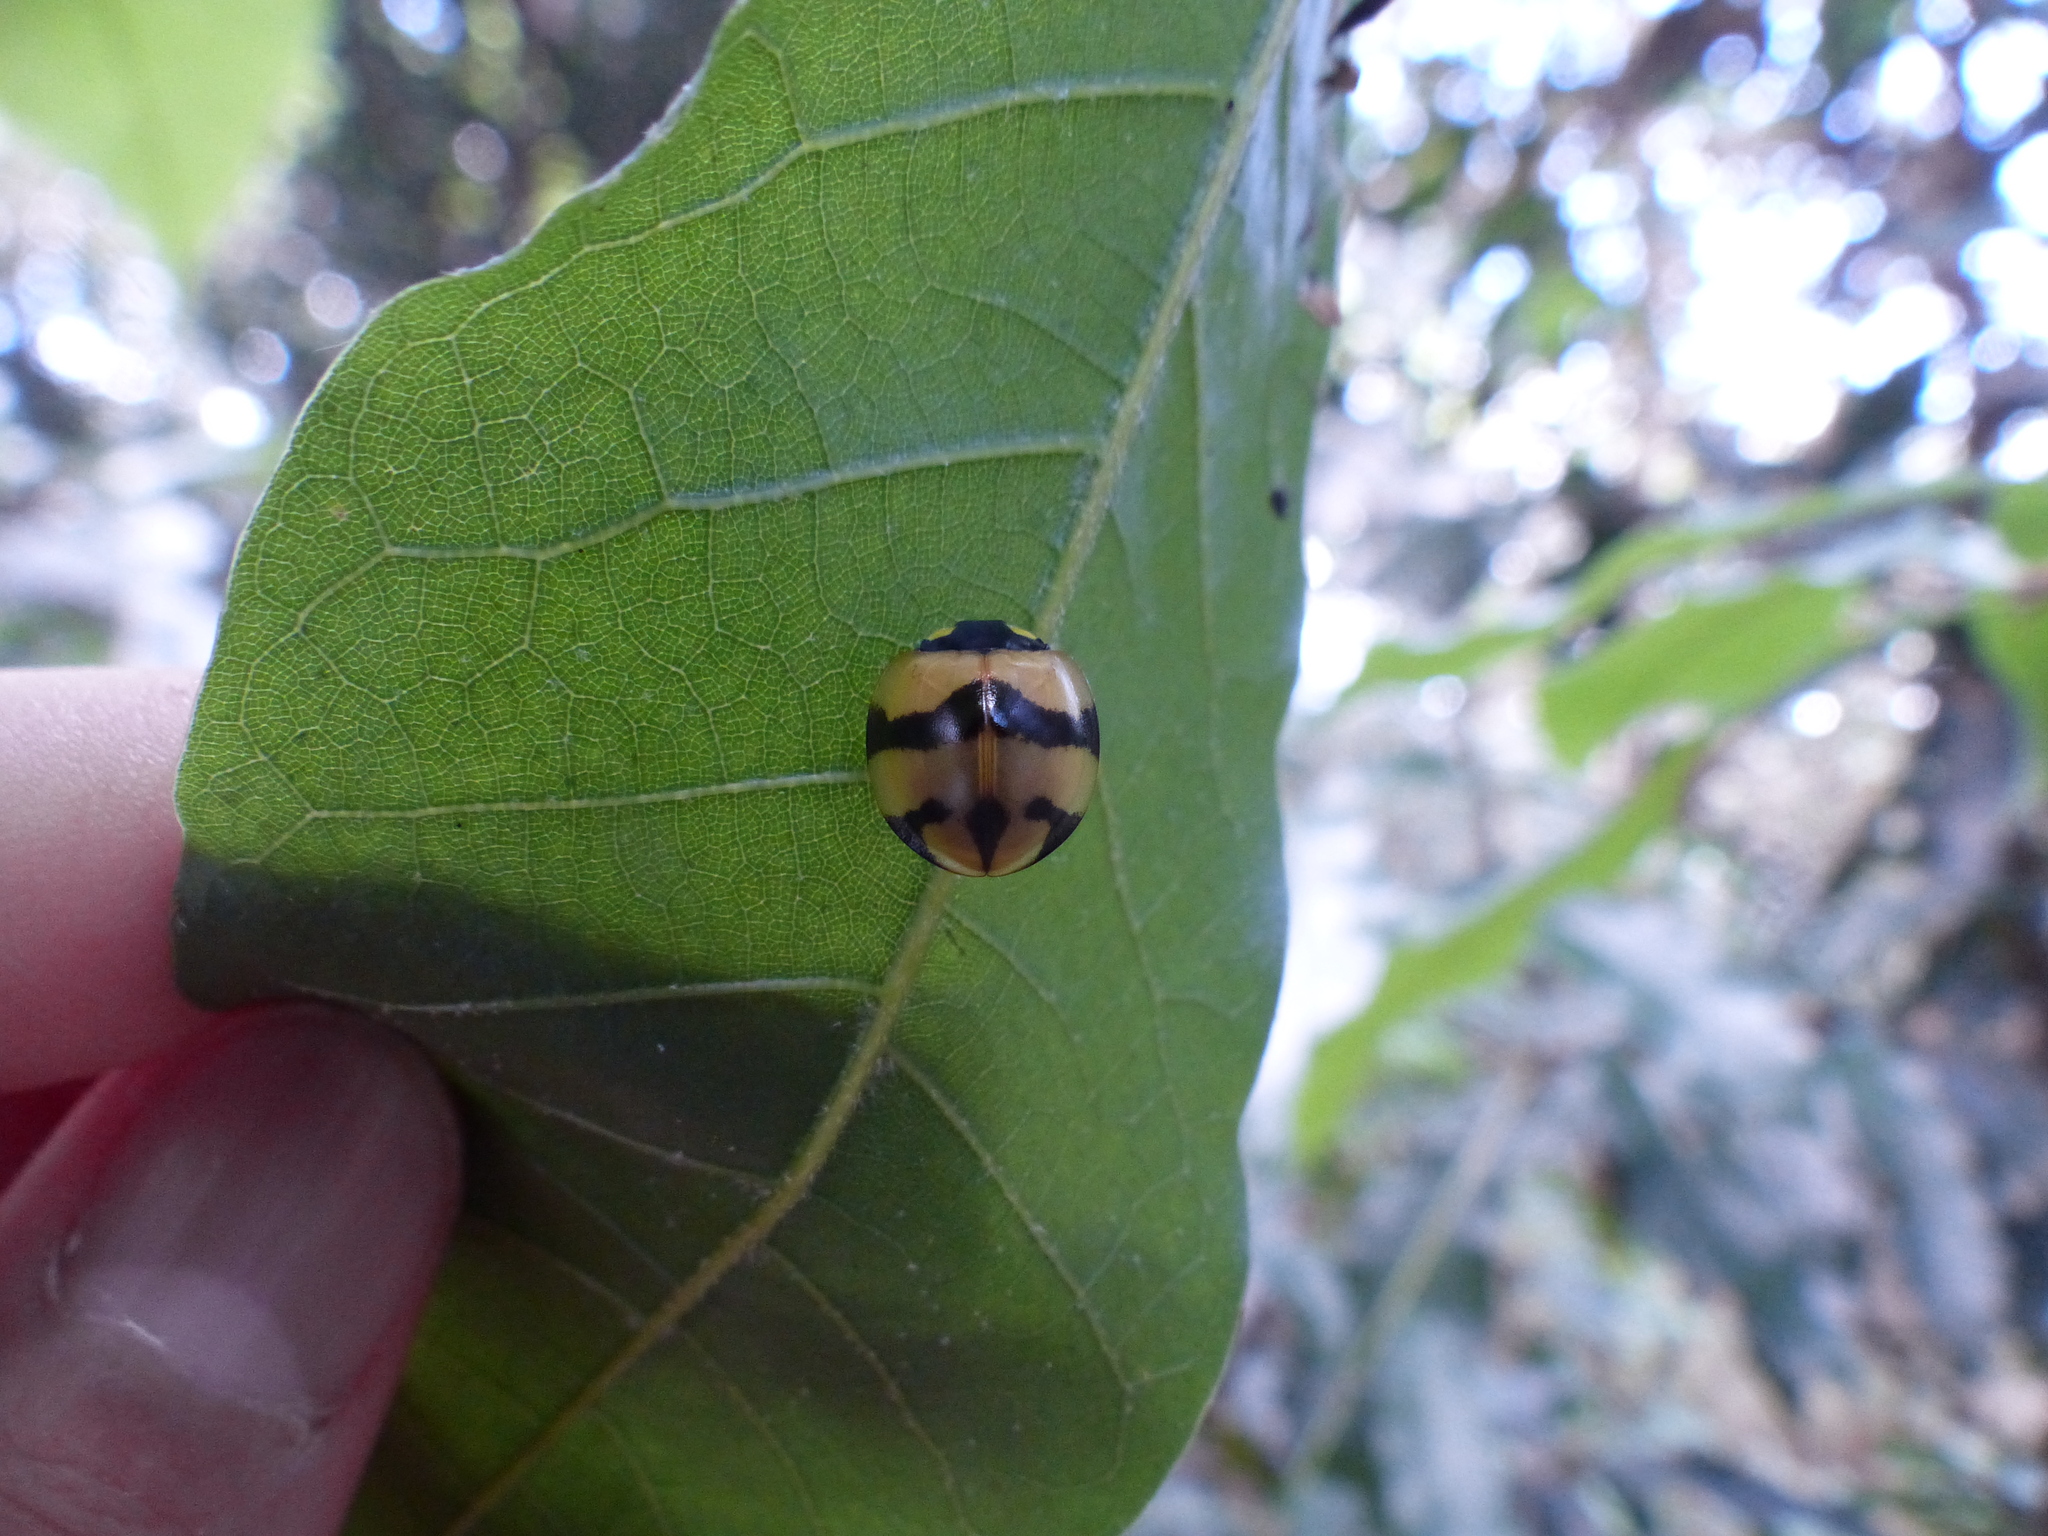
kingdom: Animalia
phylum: Arthropoda
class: Insecta
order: Coleoptera
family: Coccinellidae
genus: Neda
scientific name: Neda norrisi
